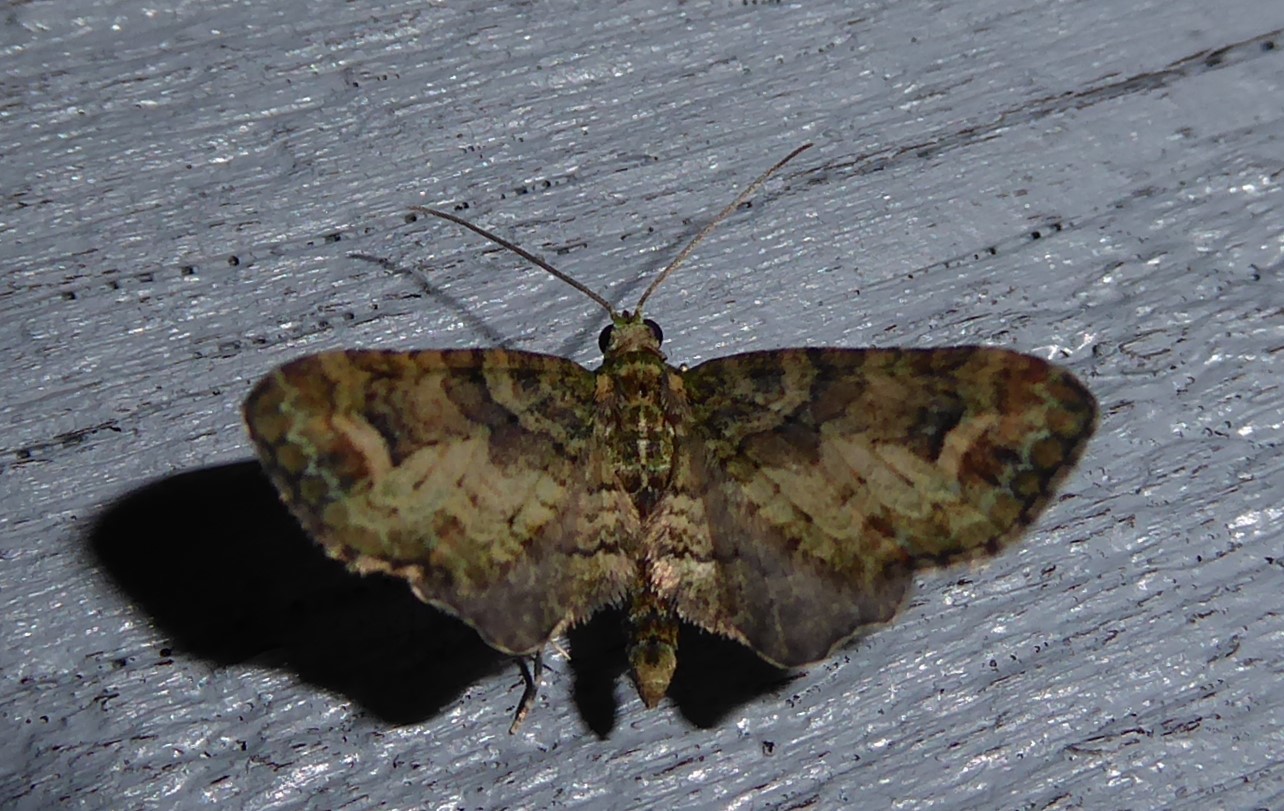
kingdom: Animalia
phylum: Arthropoda
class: Insecta
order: Lepidoptera
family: Geometridae
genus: Idaea
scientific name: Idaea mutanda
